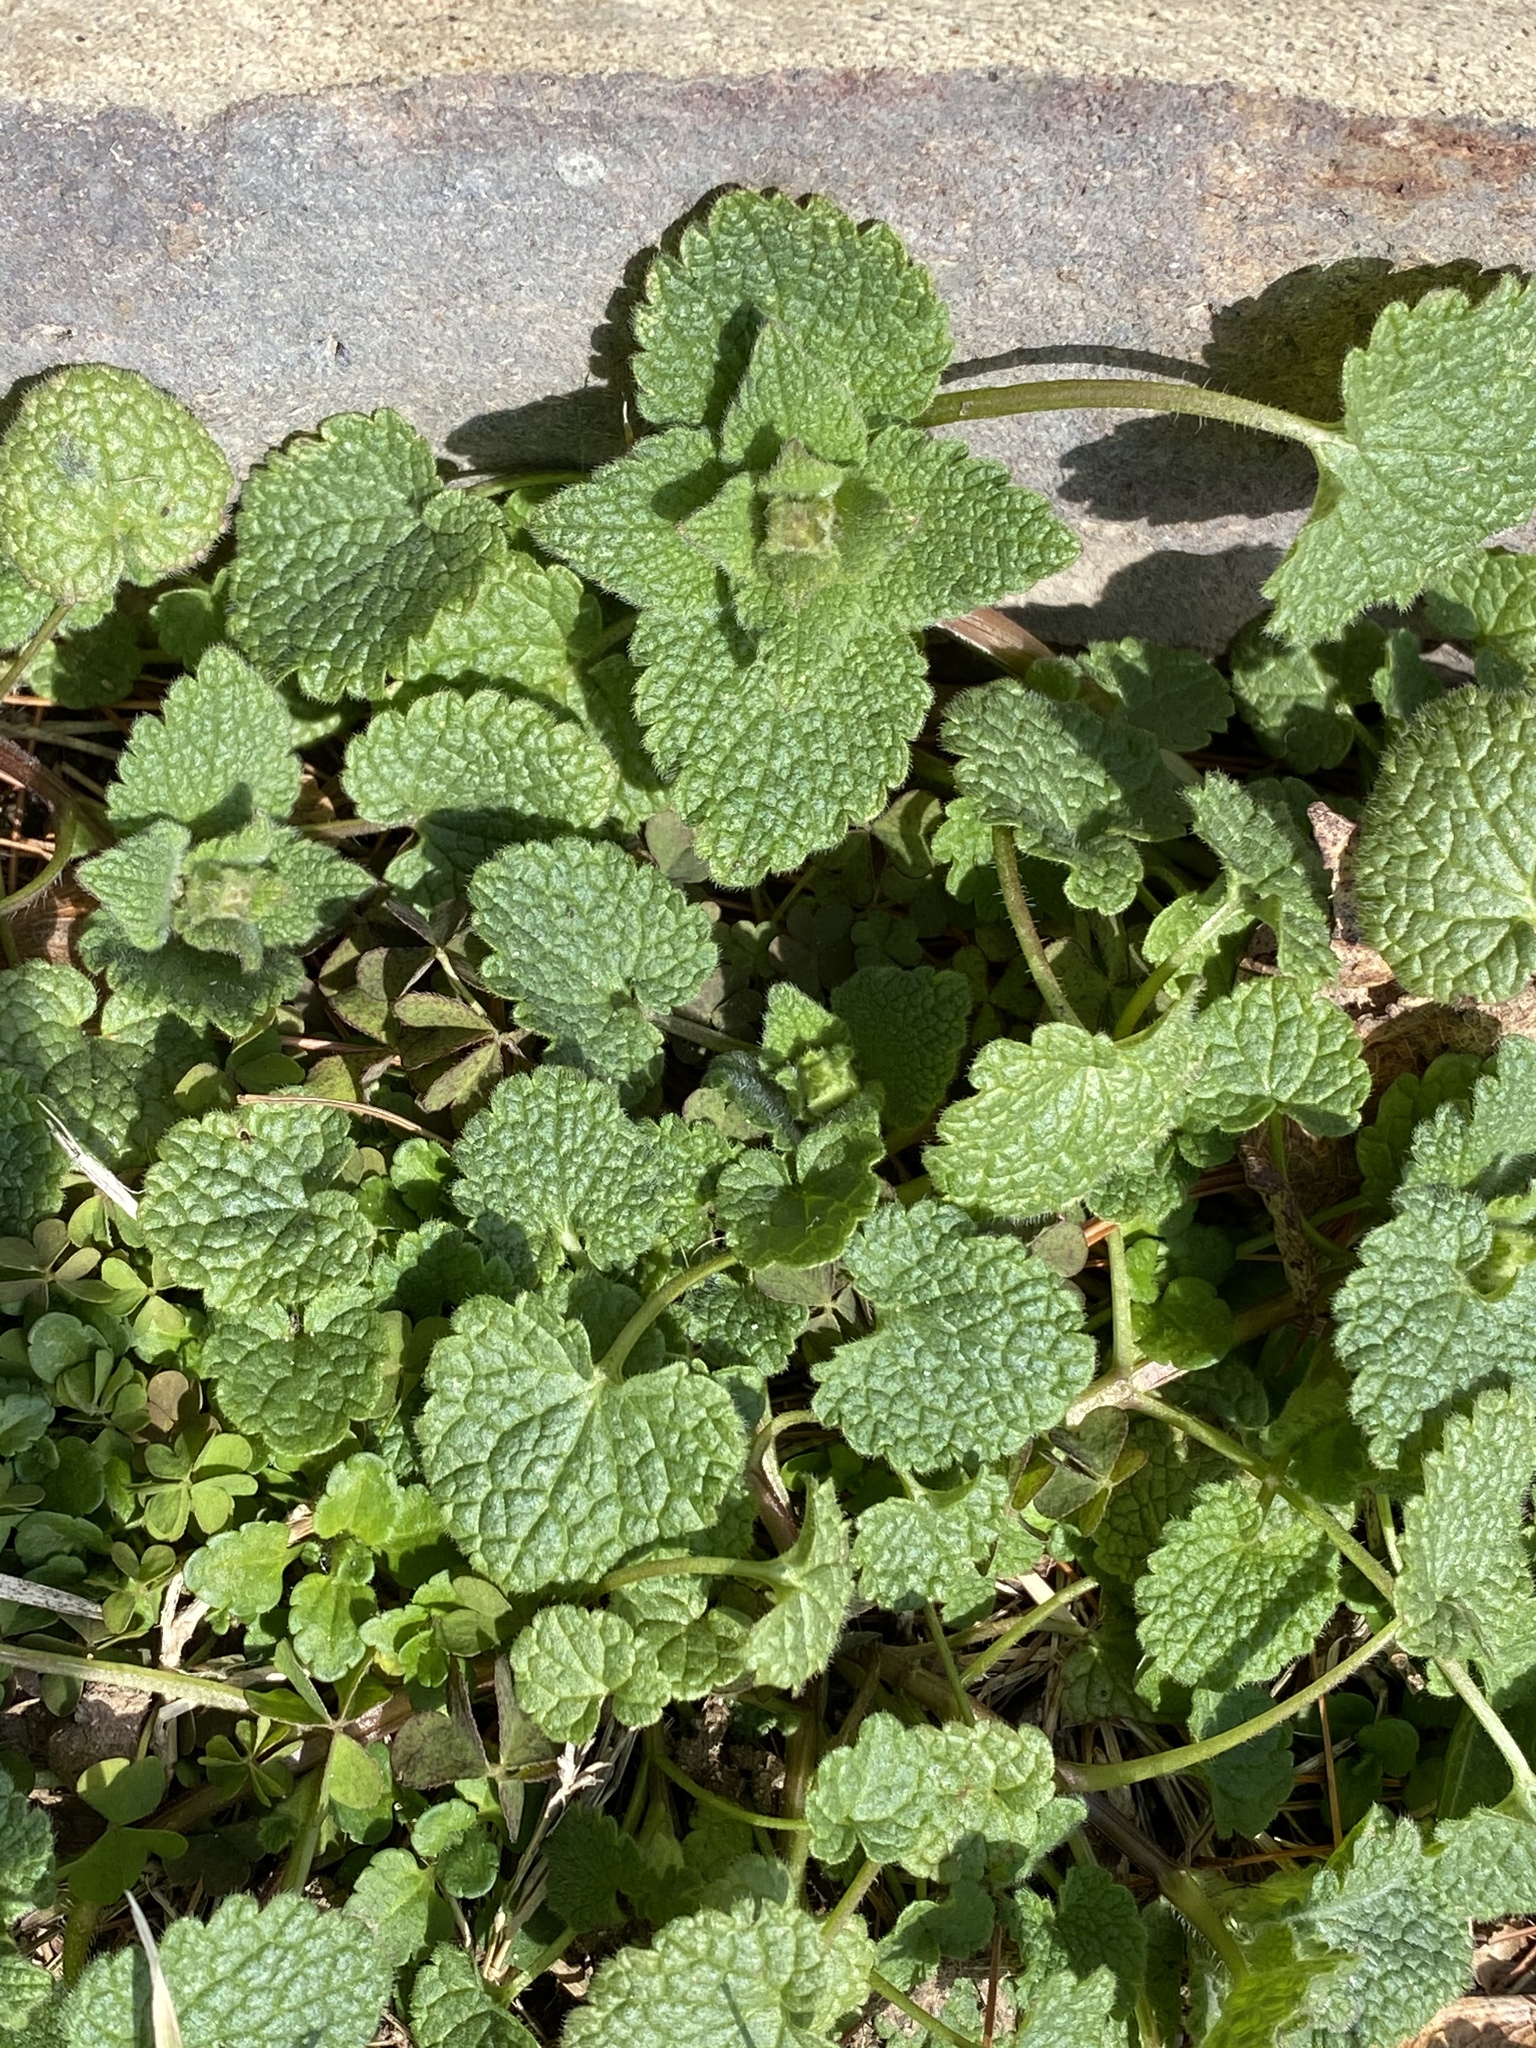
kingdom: Plantae
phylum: Tracheophyta
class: Magnoliopsida
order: Lamiales
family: Lamiaceae
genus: Lamium
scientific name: Lamium purpureum
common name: Red dead-nettle
